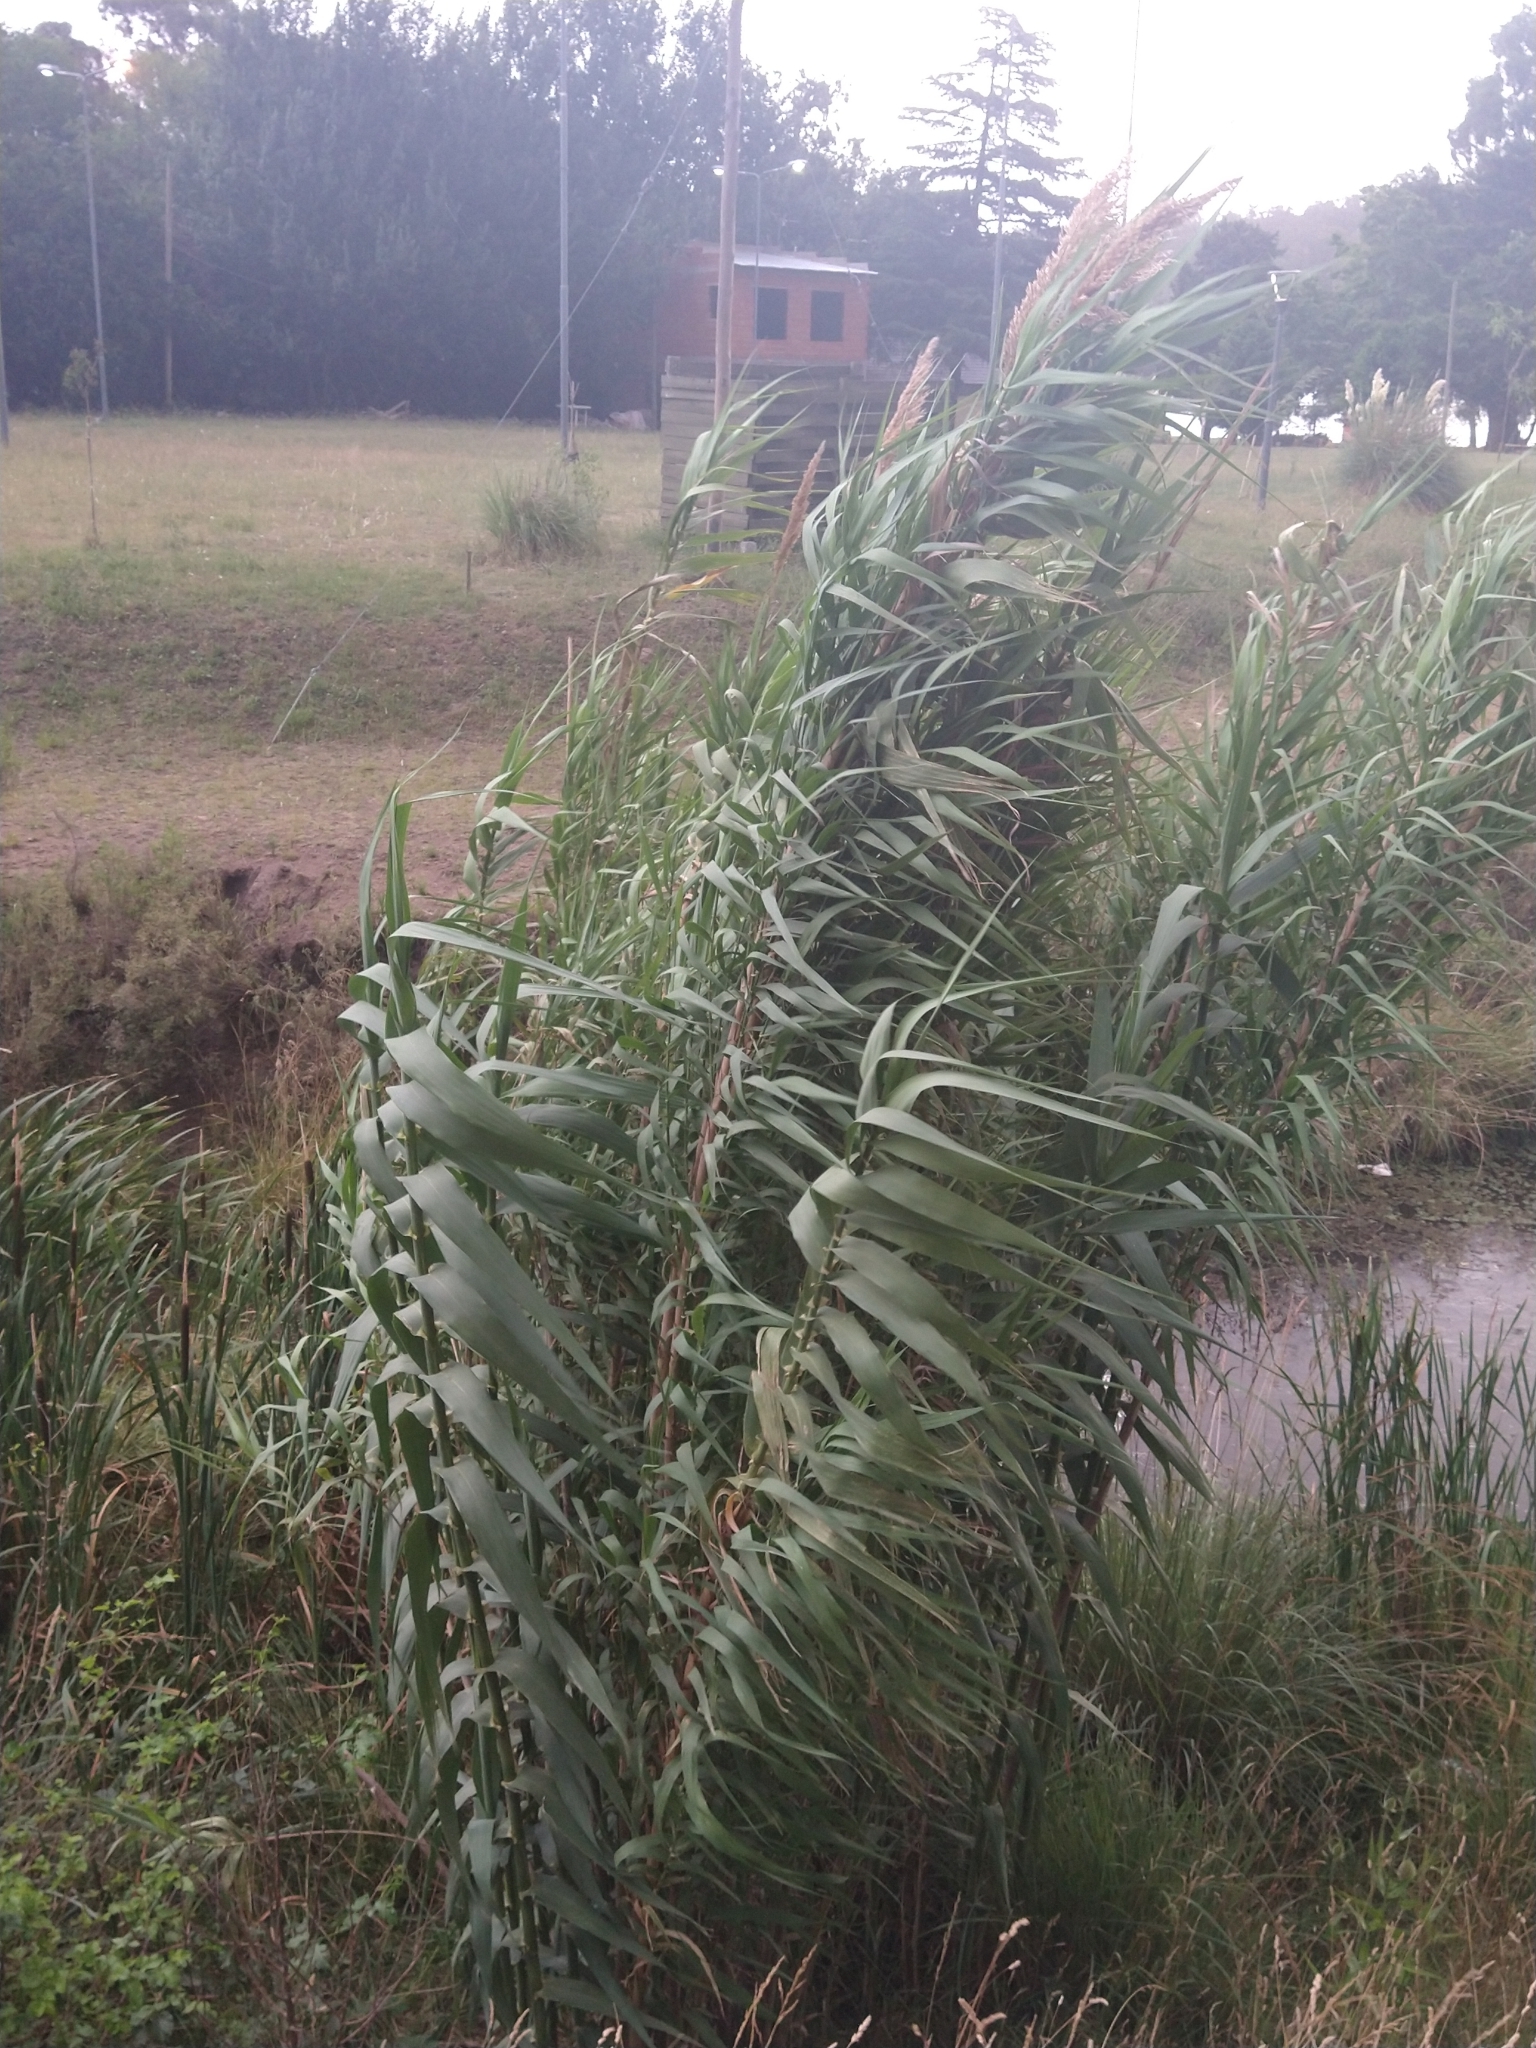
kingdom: Plantae
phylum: Tracheophyta
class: Liliopsida
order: Poales
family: Poaceae
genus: Arundo
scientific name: Arundo donax
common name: Giant reed
